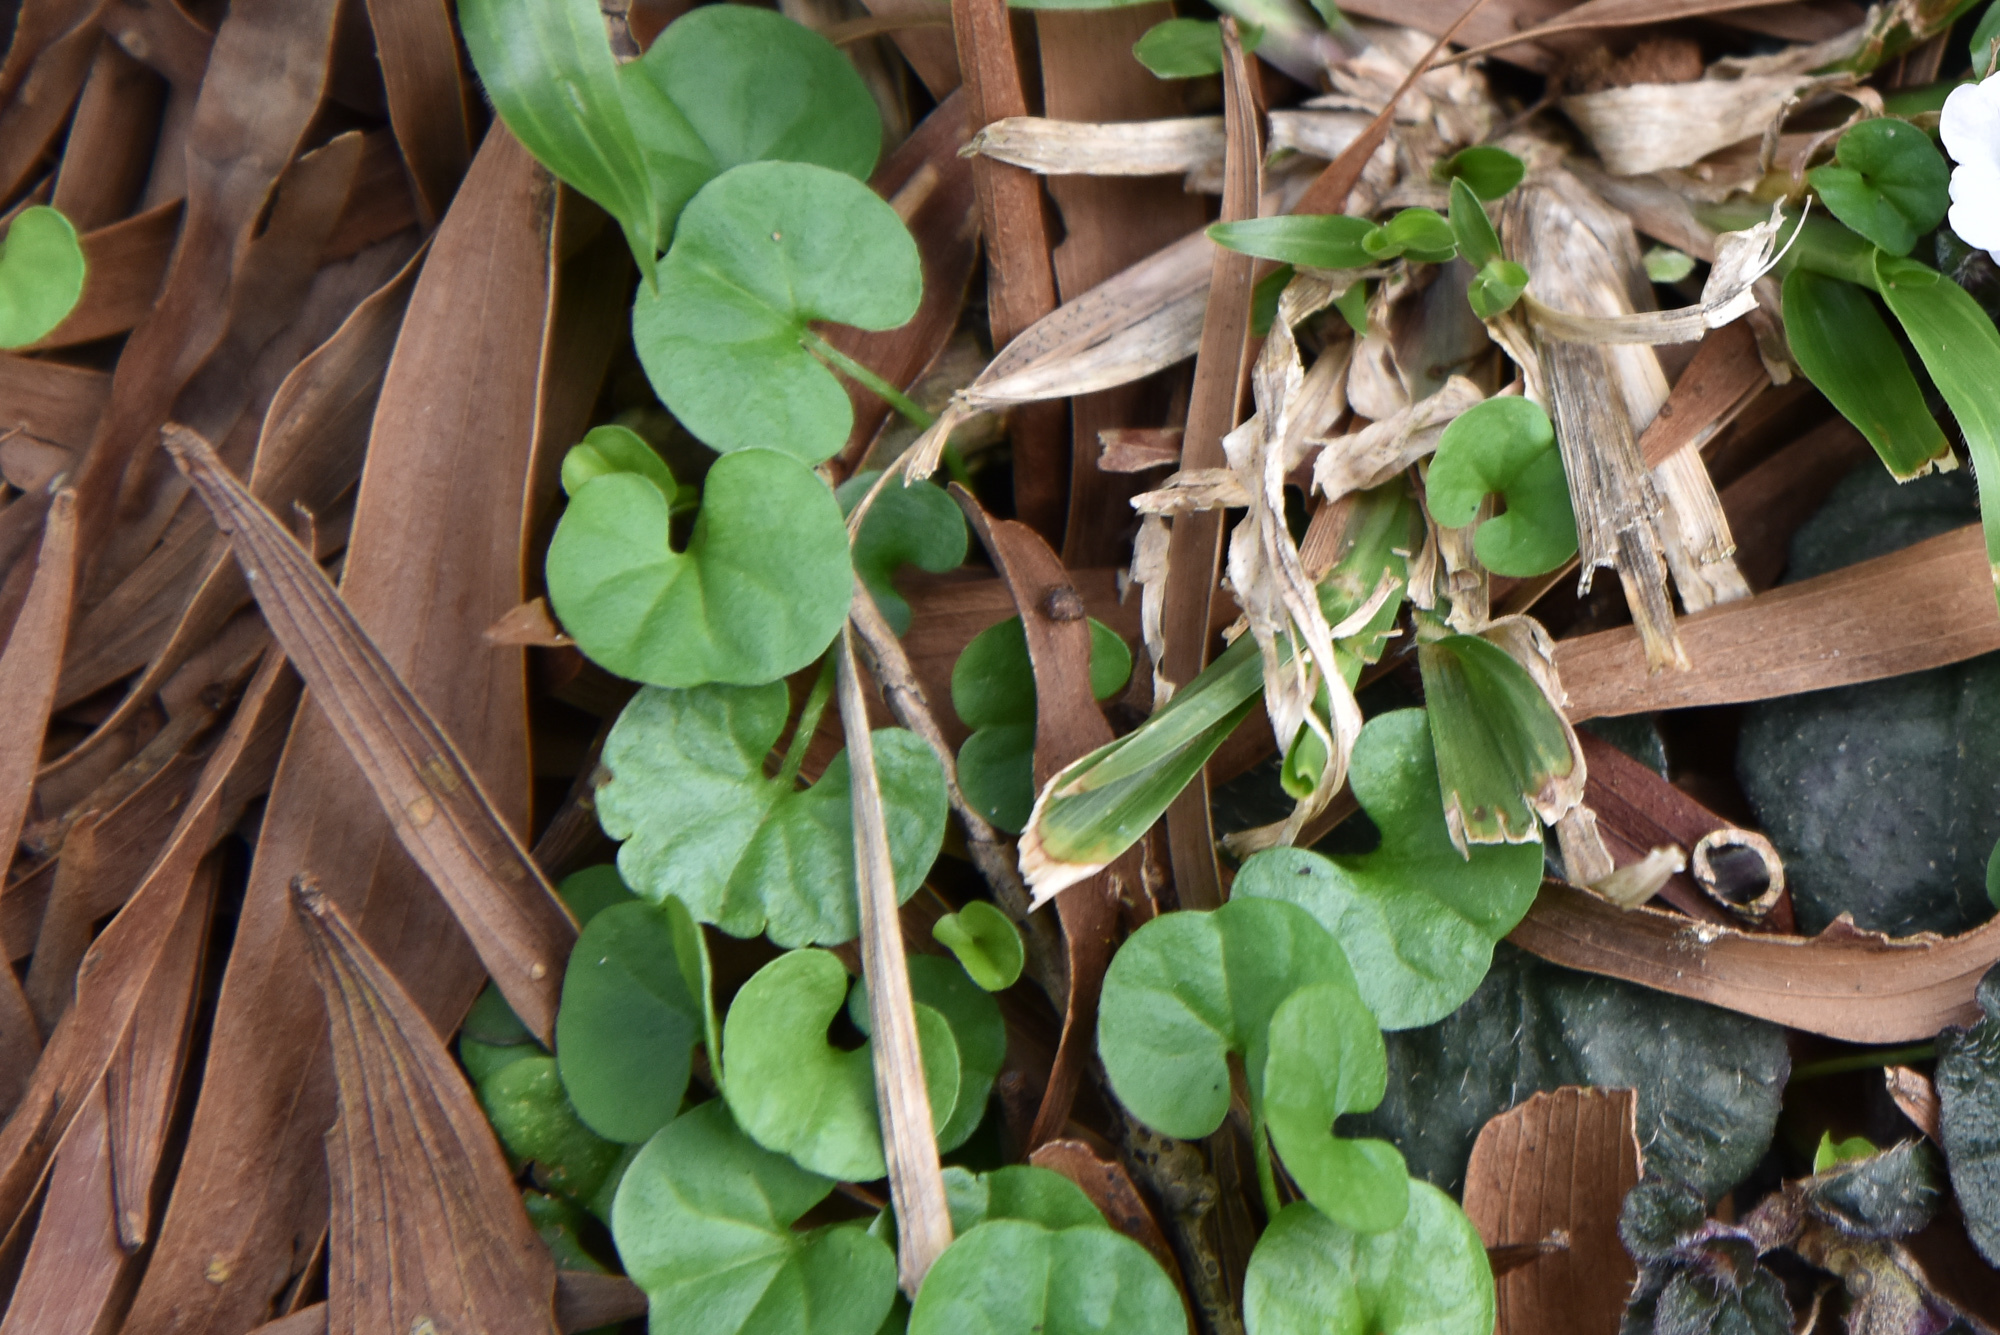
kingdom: Plantae
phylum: Tracheophyta
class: Magnoliopsida
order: Solanales
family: Convolvulaceae
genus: Dichondra
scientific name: Dichondra micrantha
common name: Kidneyweed
